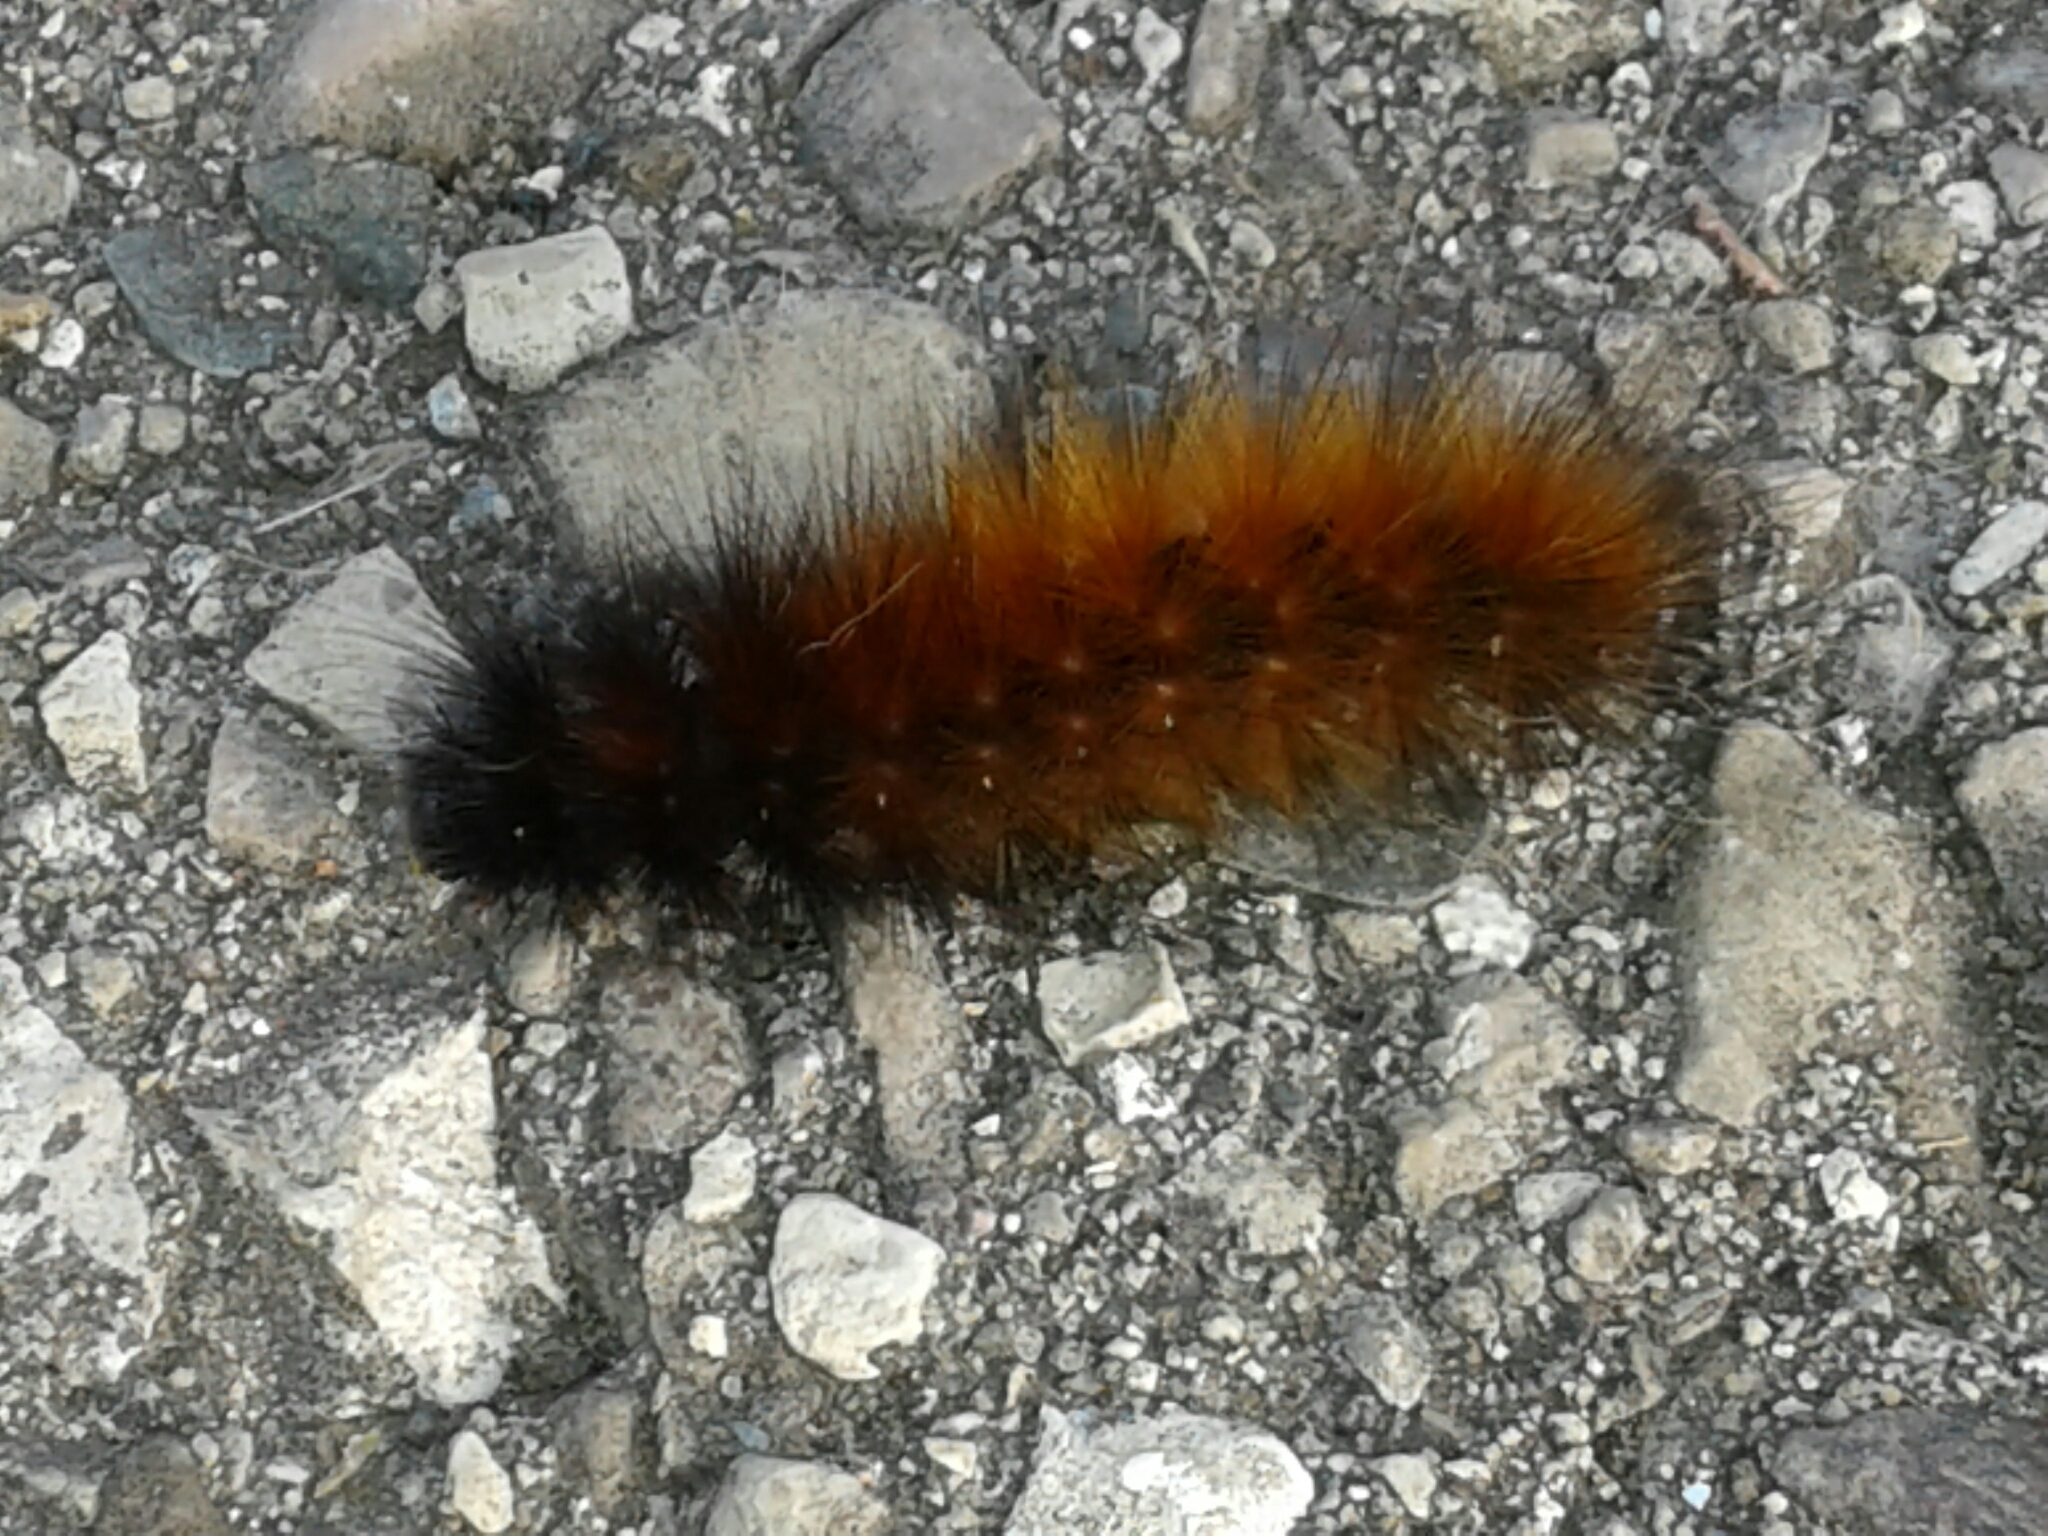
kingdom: Animalia
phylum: Arthropoda
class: Insecta
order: Lepidoptera
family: Erebidae
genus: Spilosoma
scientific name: Spilosoma virginica
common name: Virginia tiger moth
